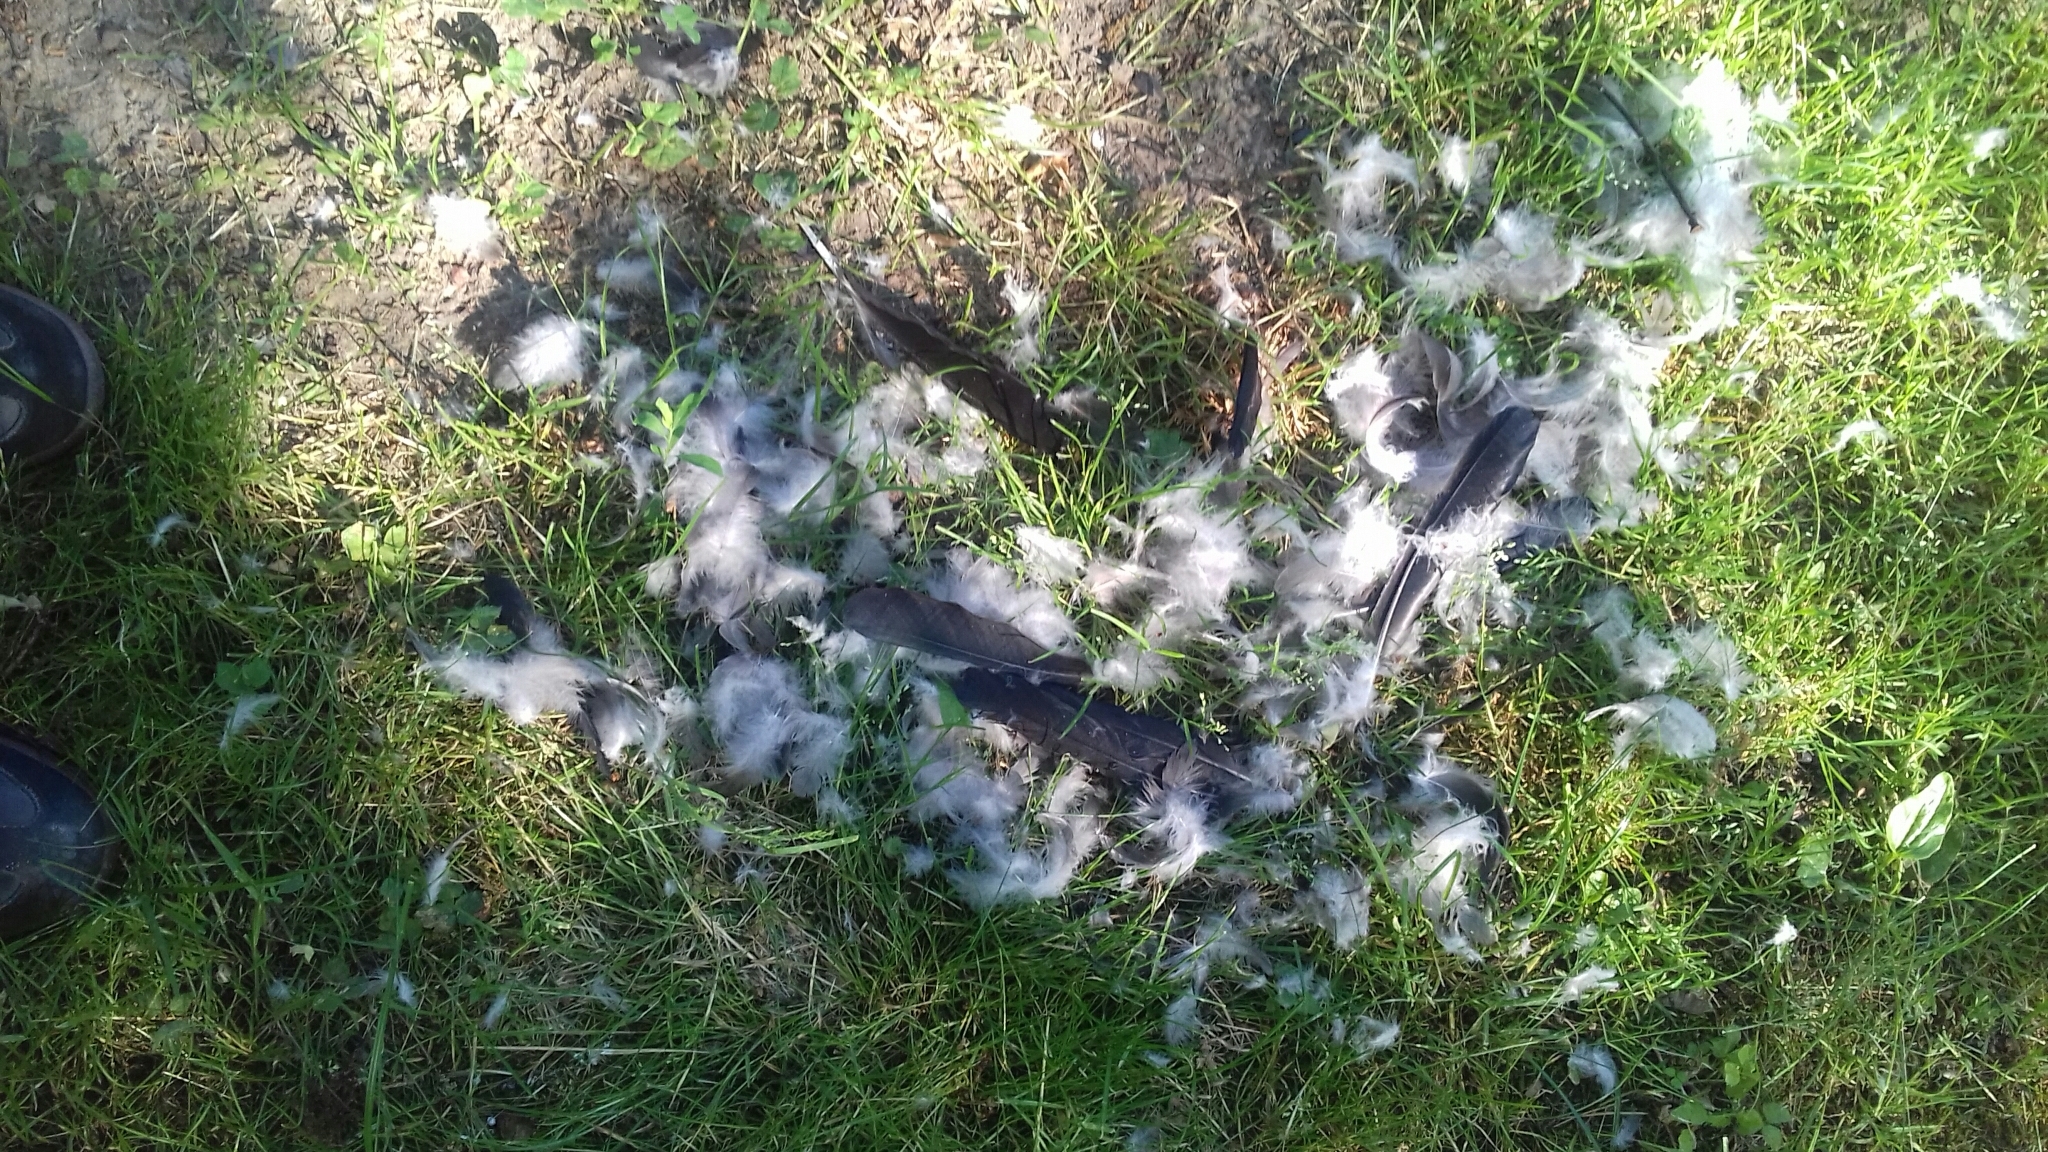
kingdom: Animalia
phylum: Chordata
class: Aves
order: Passeriformes
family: Corvidae
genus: Corvus
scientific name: Corvus cornix
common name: Hooded crow
